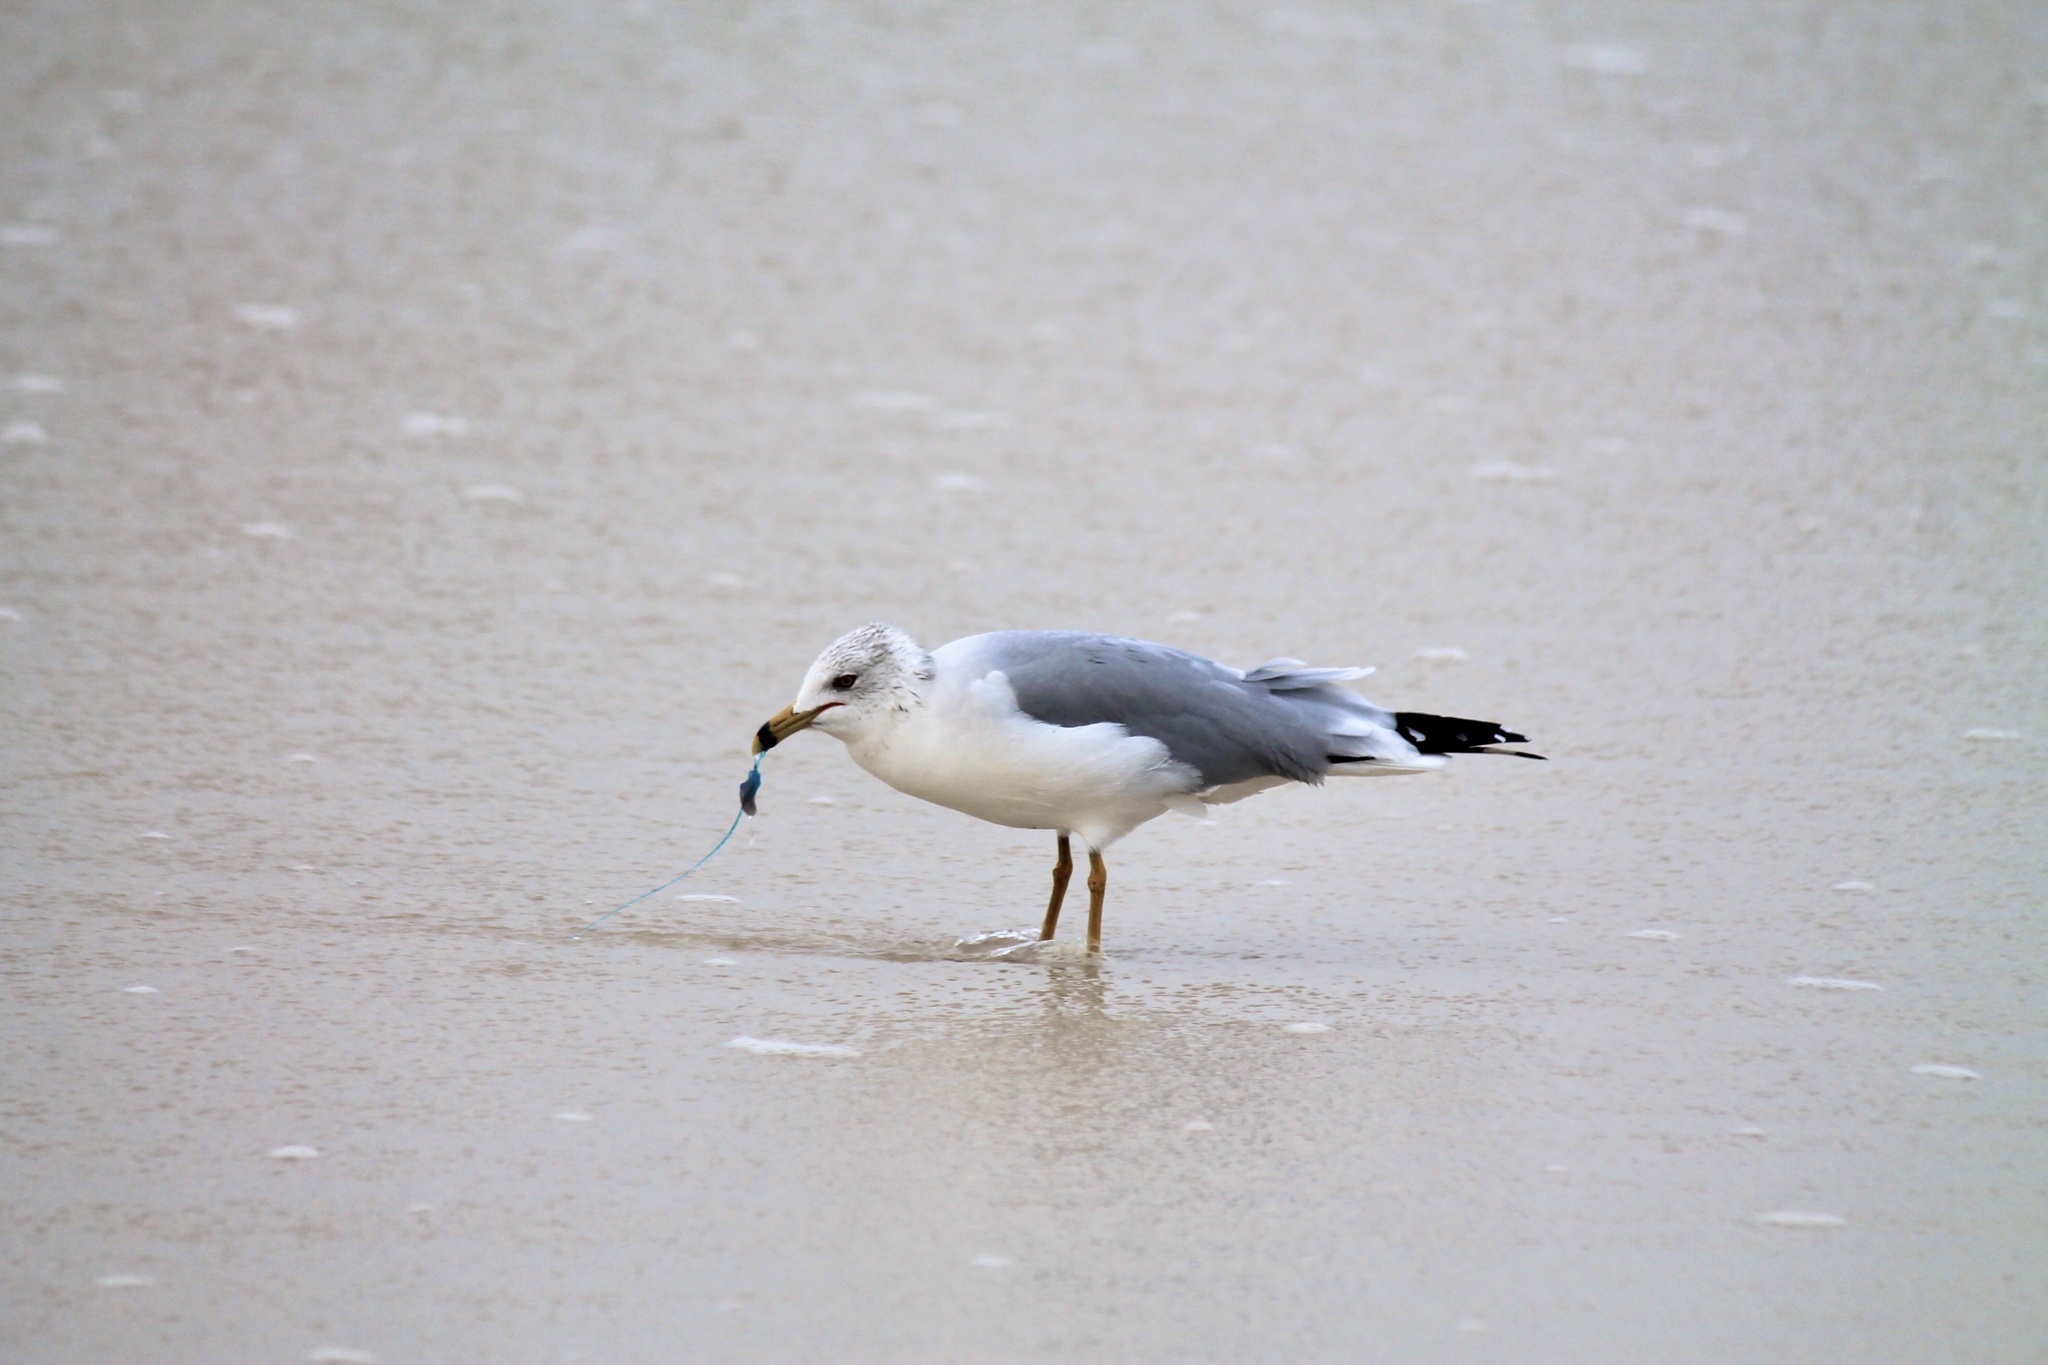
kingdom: Animalia
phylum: Chordata
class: Aves
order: Charadriiformes
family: Laridae
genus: Larus
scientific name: Larus delawarensis
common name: Ring-billed gull
